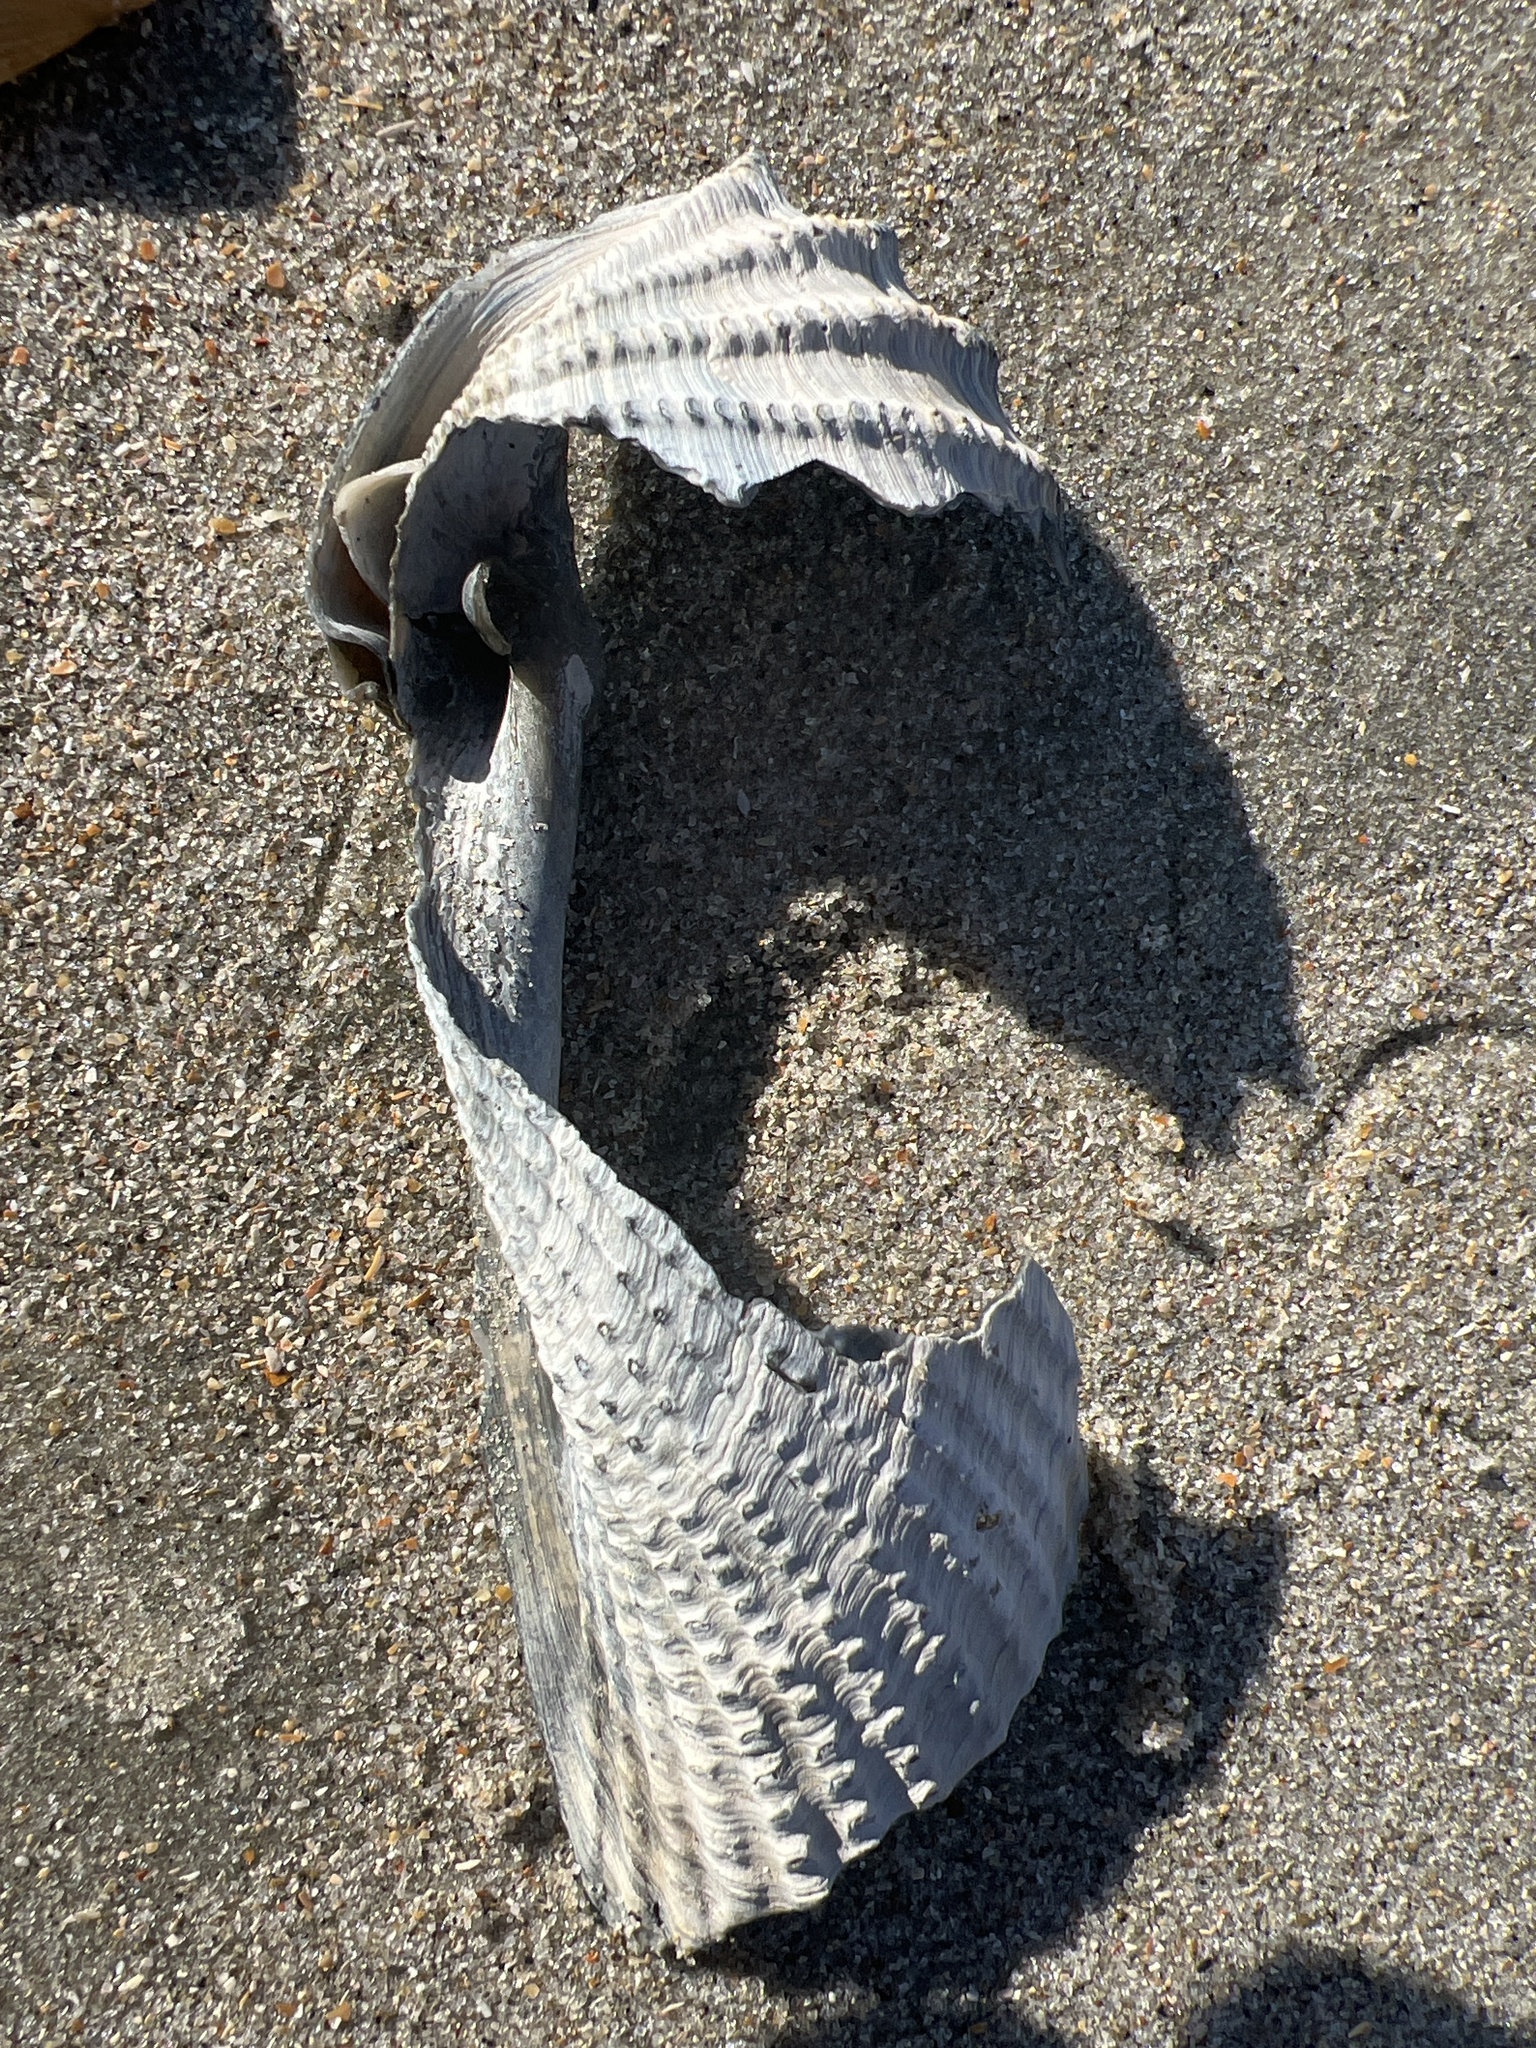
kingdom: Animalia
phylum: Mollusca
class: Bivalvia
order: Myida
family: Pholadidae
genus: Cyrtopleura
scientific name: Cyrtopleura costata
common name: Angel wing
